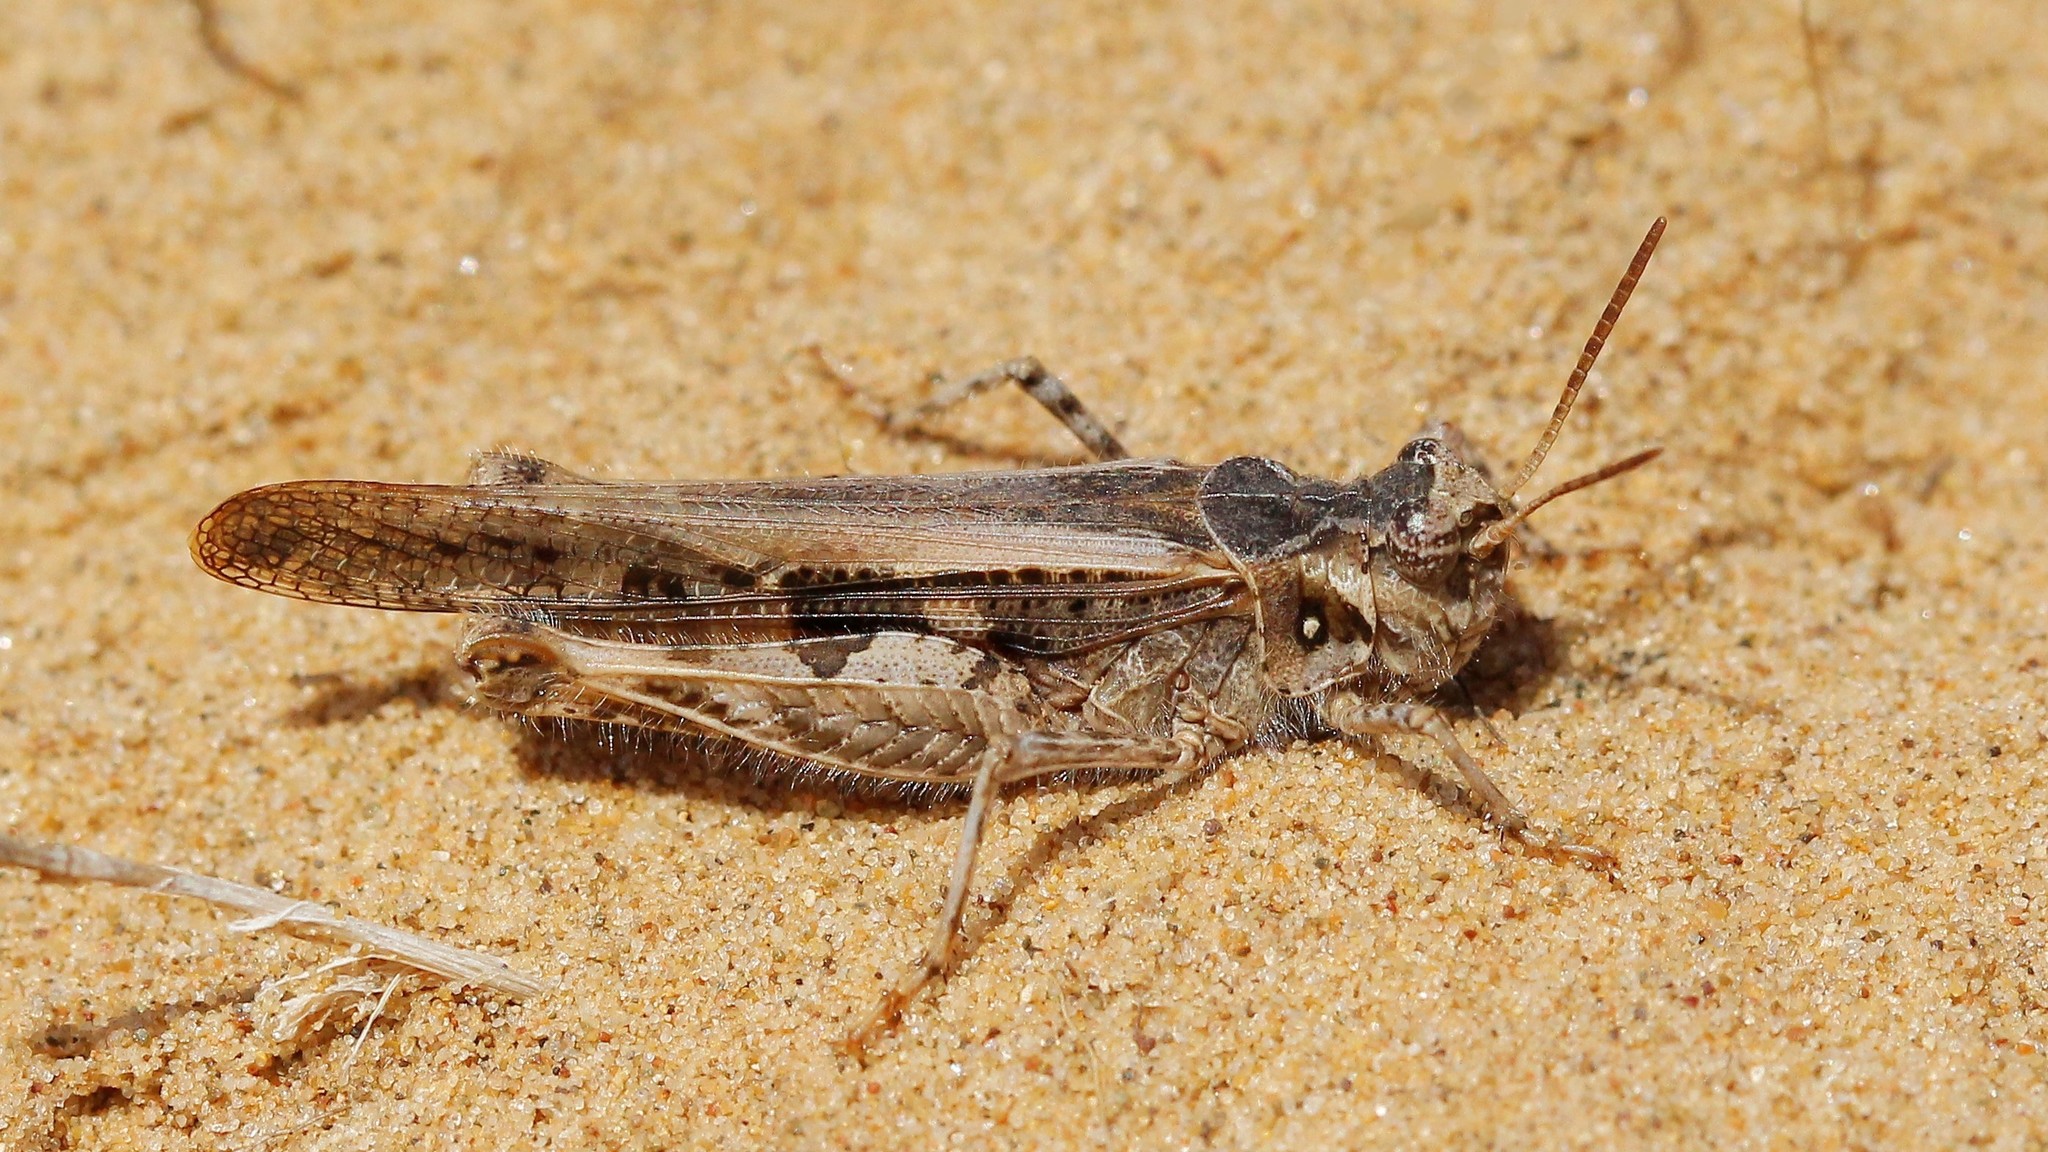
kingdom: Animalia
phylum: Arthropoda
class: Insecta
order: Orthoptera
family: Acrididae
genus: Acrotylus
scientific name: Acrotylus insubricus
